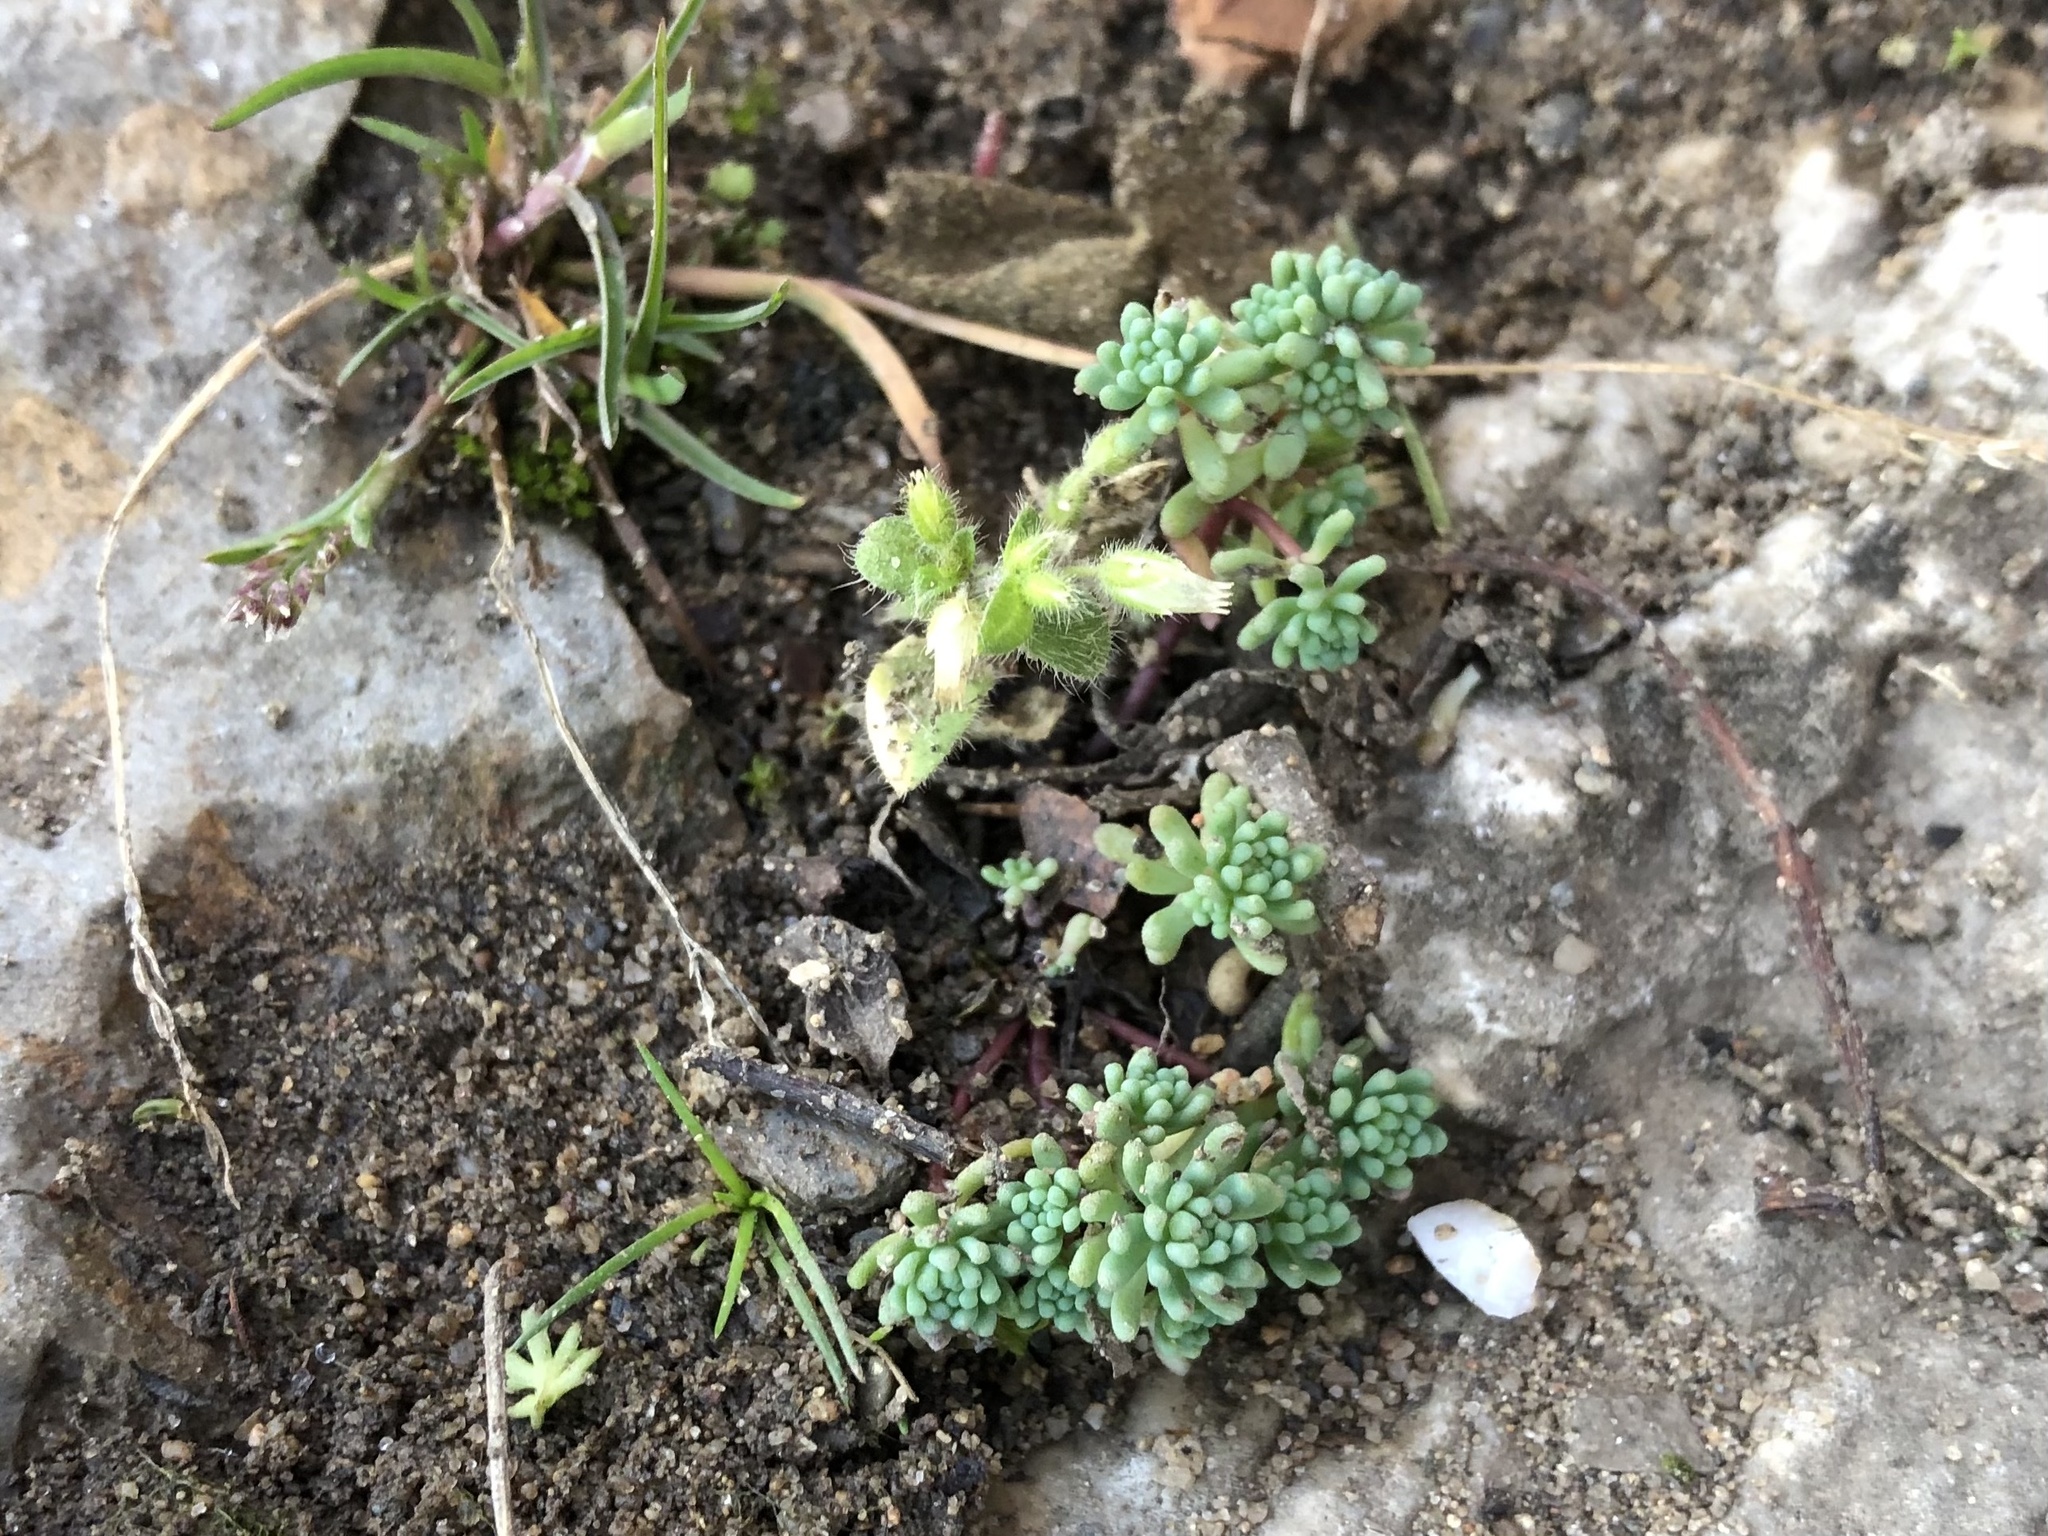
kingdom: Plantae
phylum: Tracheophyta
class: Magnoliopsida
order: Saxifragales
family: Crassulaceae
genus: Sedum
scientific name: Sedum pallidum
